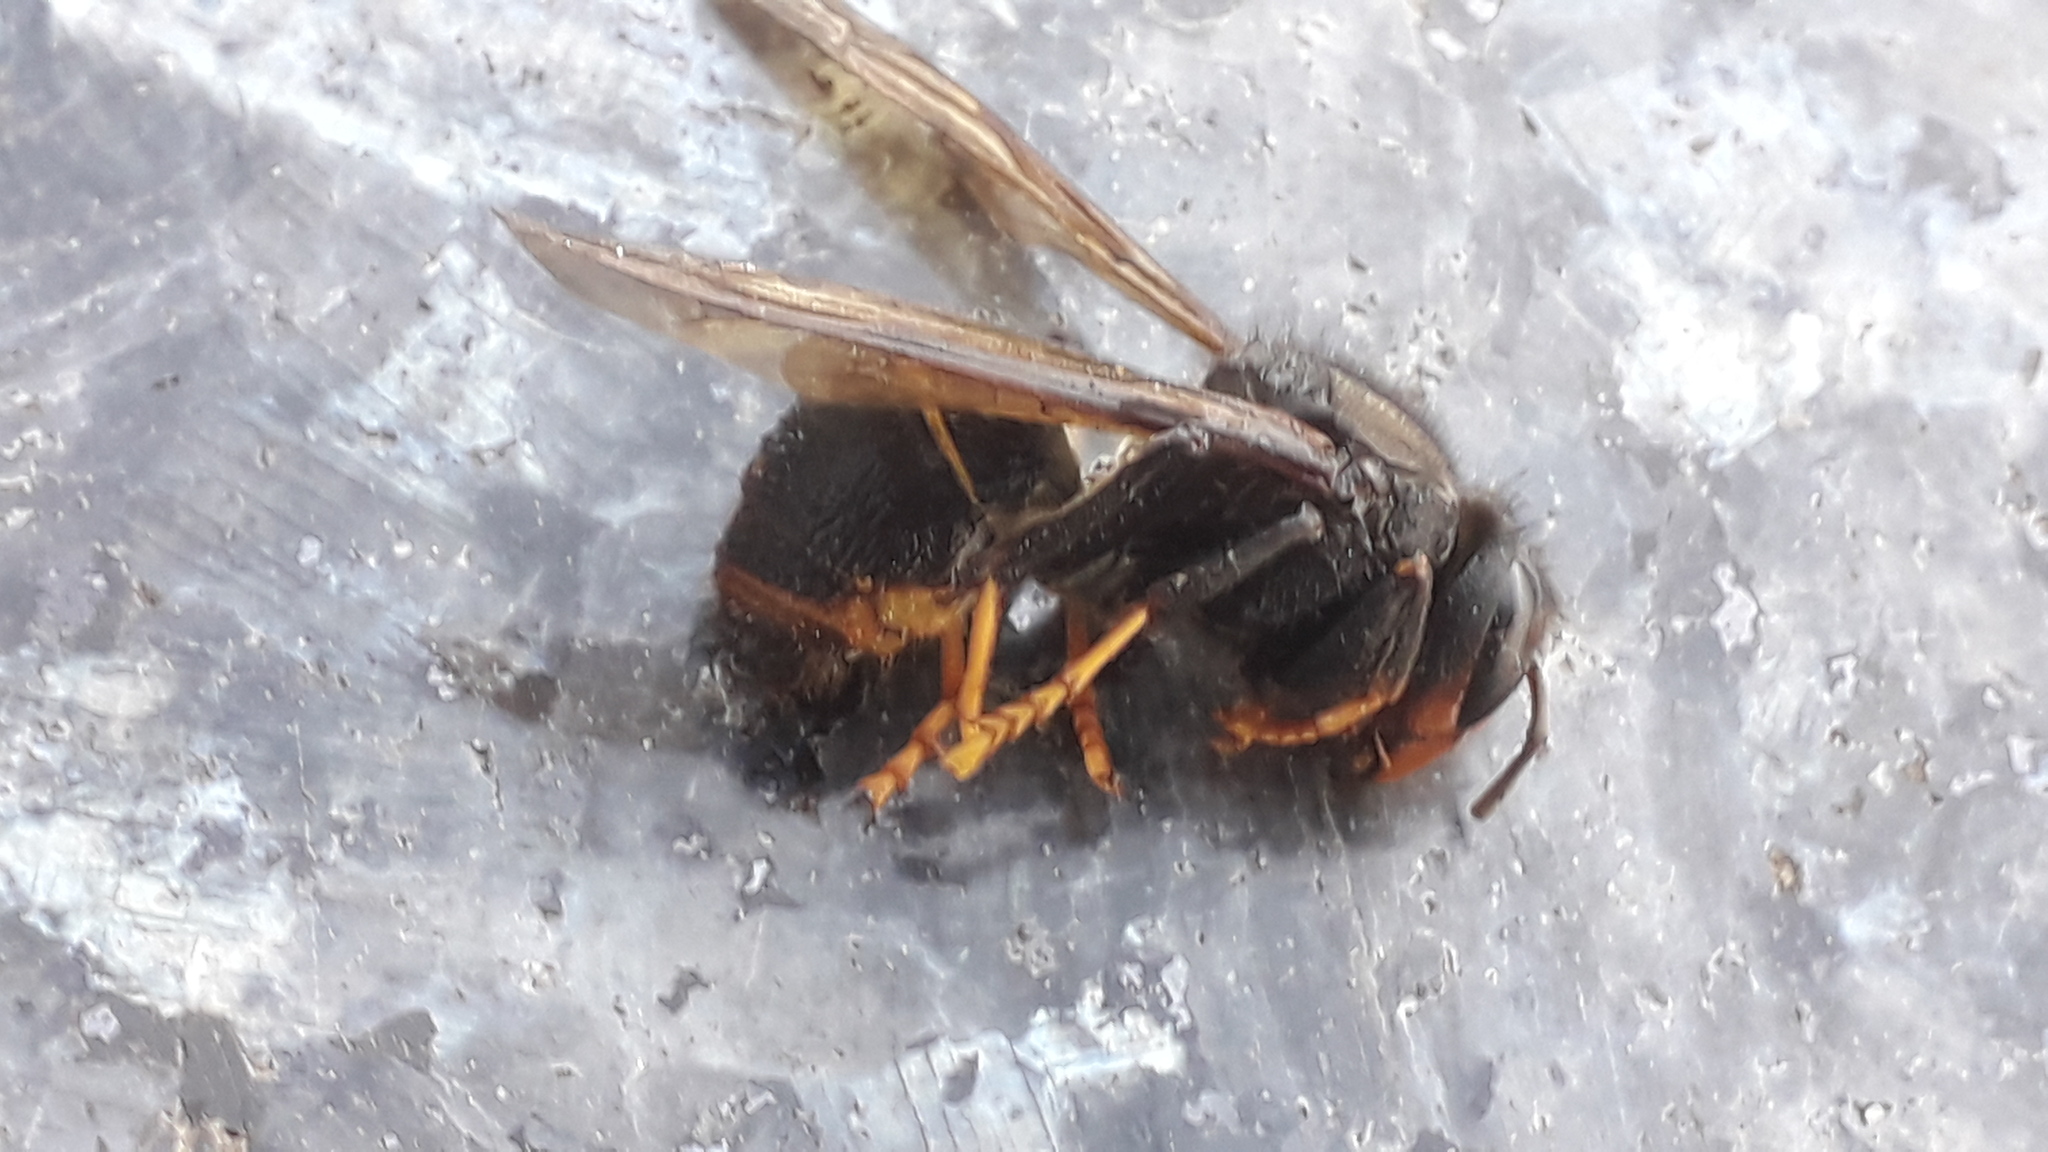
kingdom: Animalia
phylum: Arthropoda
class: Insecta
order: Hymenoptera
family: Vespidae
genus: Vespa
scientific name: Vespa velutina
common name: Asian hornet
